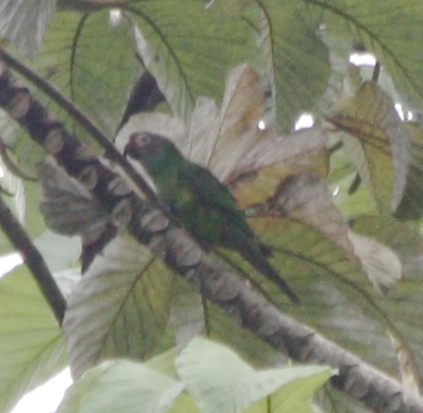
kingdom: Animalia
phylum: Chordata
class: Aves
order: Psittaciformes
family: Psittacidae
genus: Aratinga
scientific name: Aratinga weddellii
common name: Dusky-headed parakeet
